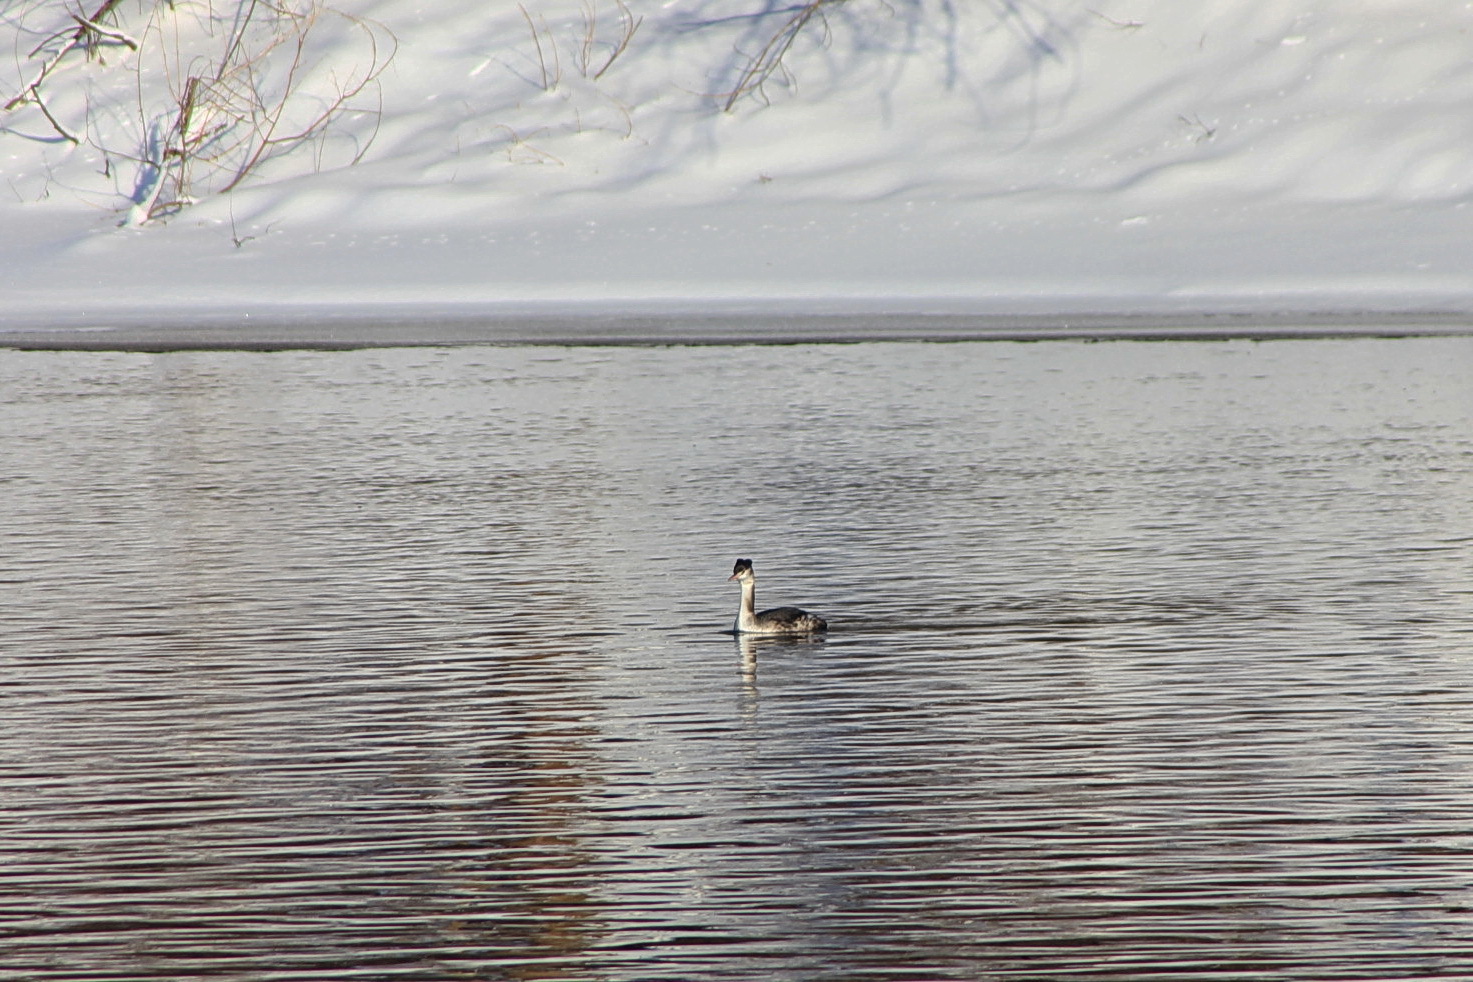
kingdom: Animalia
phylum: Chordata
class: Aves
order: Podicipediformes
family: Podicipedidae
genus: Podiceps
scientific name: Podiceps cristatus
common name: Great crested grebe
